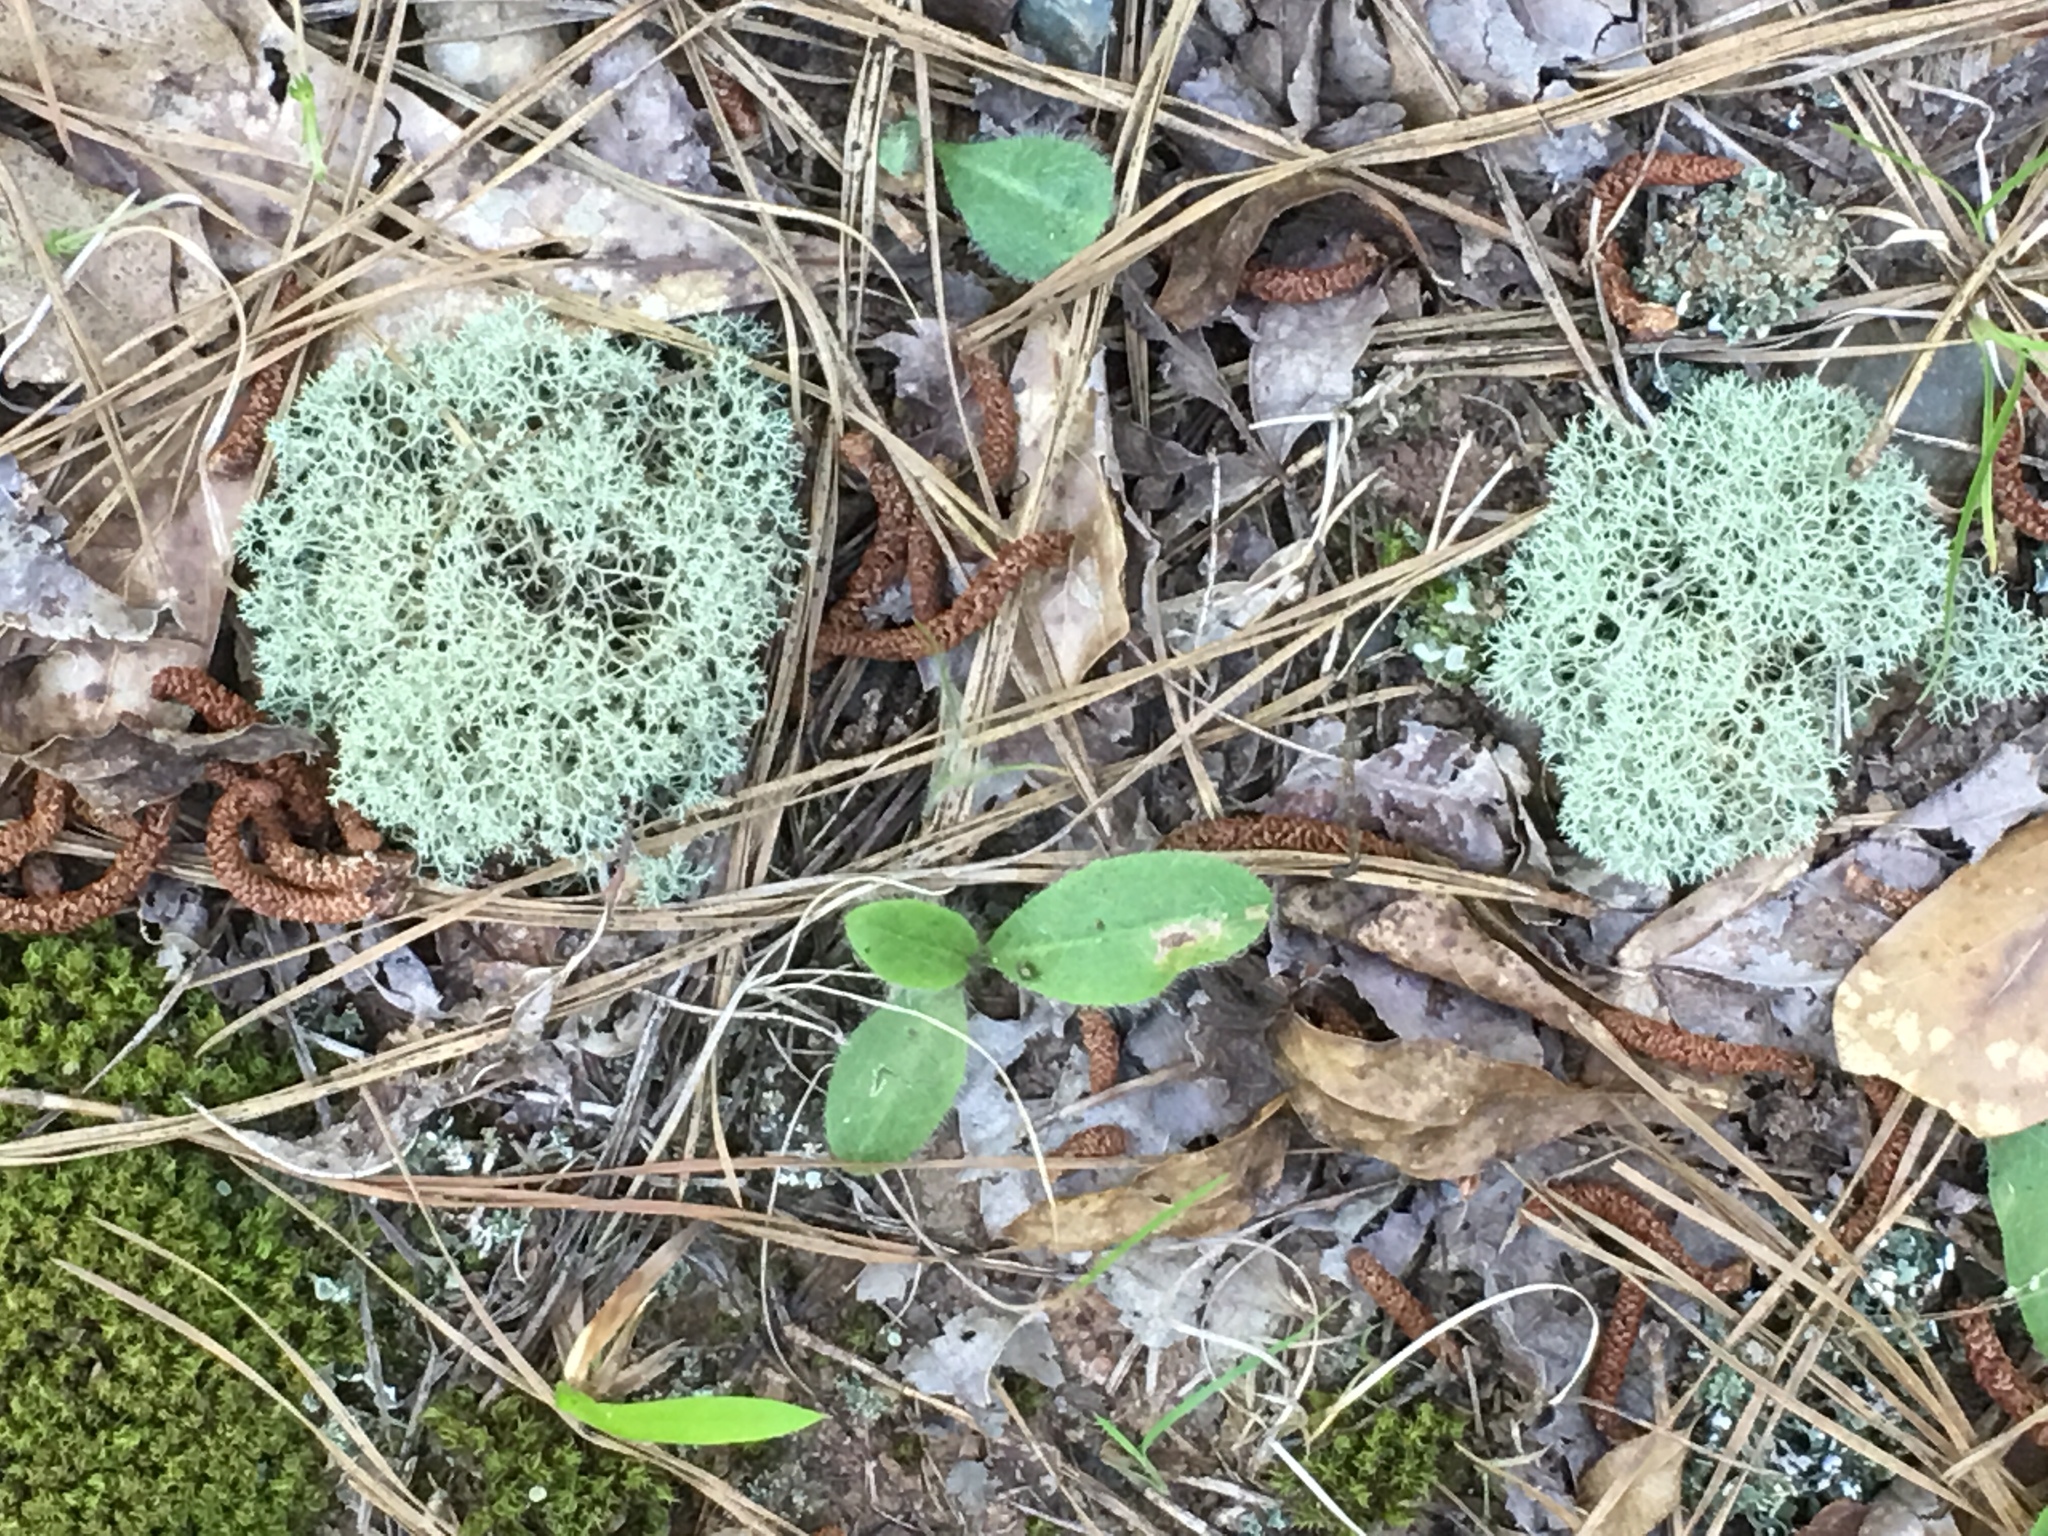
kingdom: Fungi
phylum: Ascomycota
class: Lecanoromycetes
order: Lecanorales
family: Cladoniaceae
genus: Cladonia
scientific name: Cladonia subtenuis
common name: Dixie reindeer lichen
